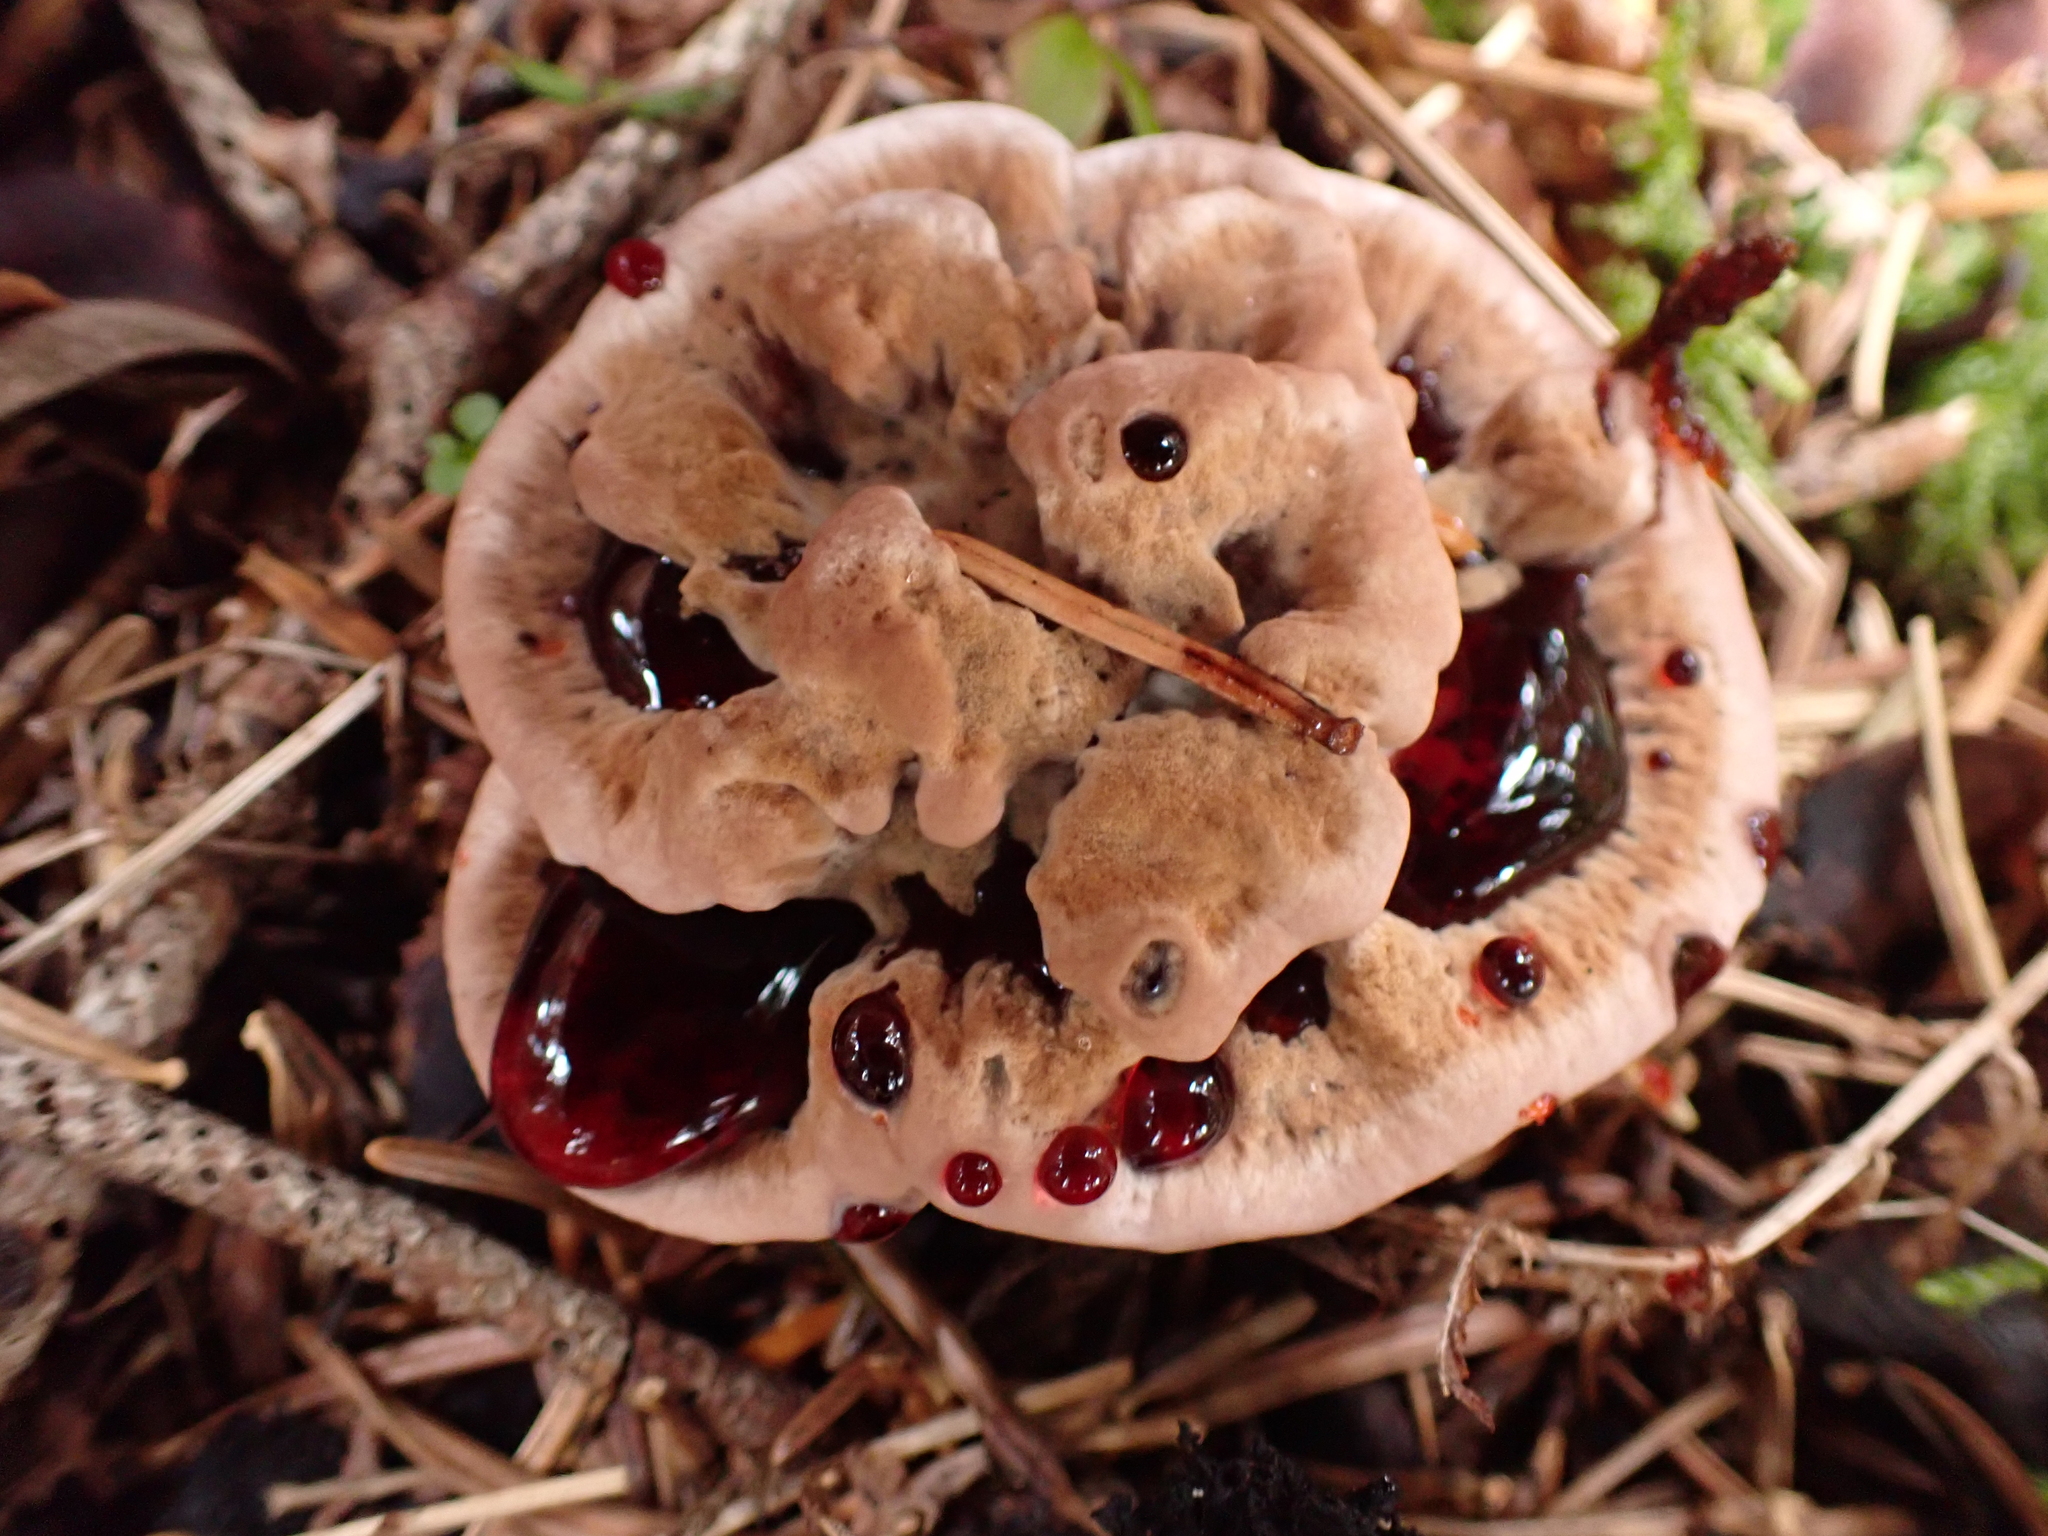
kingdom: Fungi
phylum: Basidiomycota
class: Agaricomycetes
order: Thelephorales
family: Bankeraceae
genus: Hydnellum
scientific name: Hydnellum ferrugineum
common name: Mealy tooth
